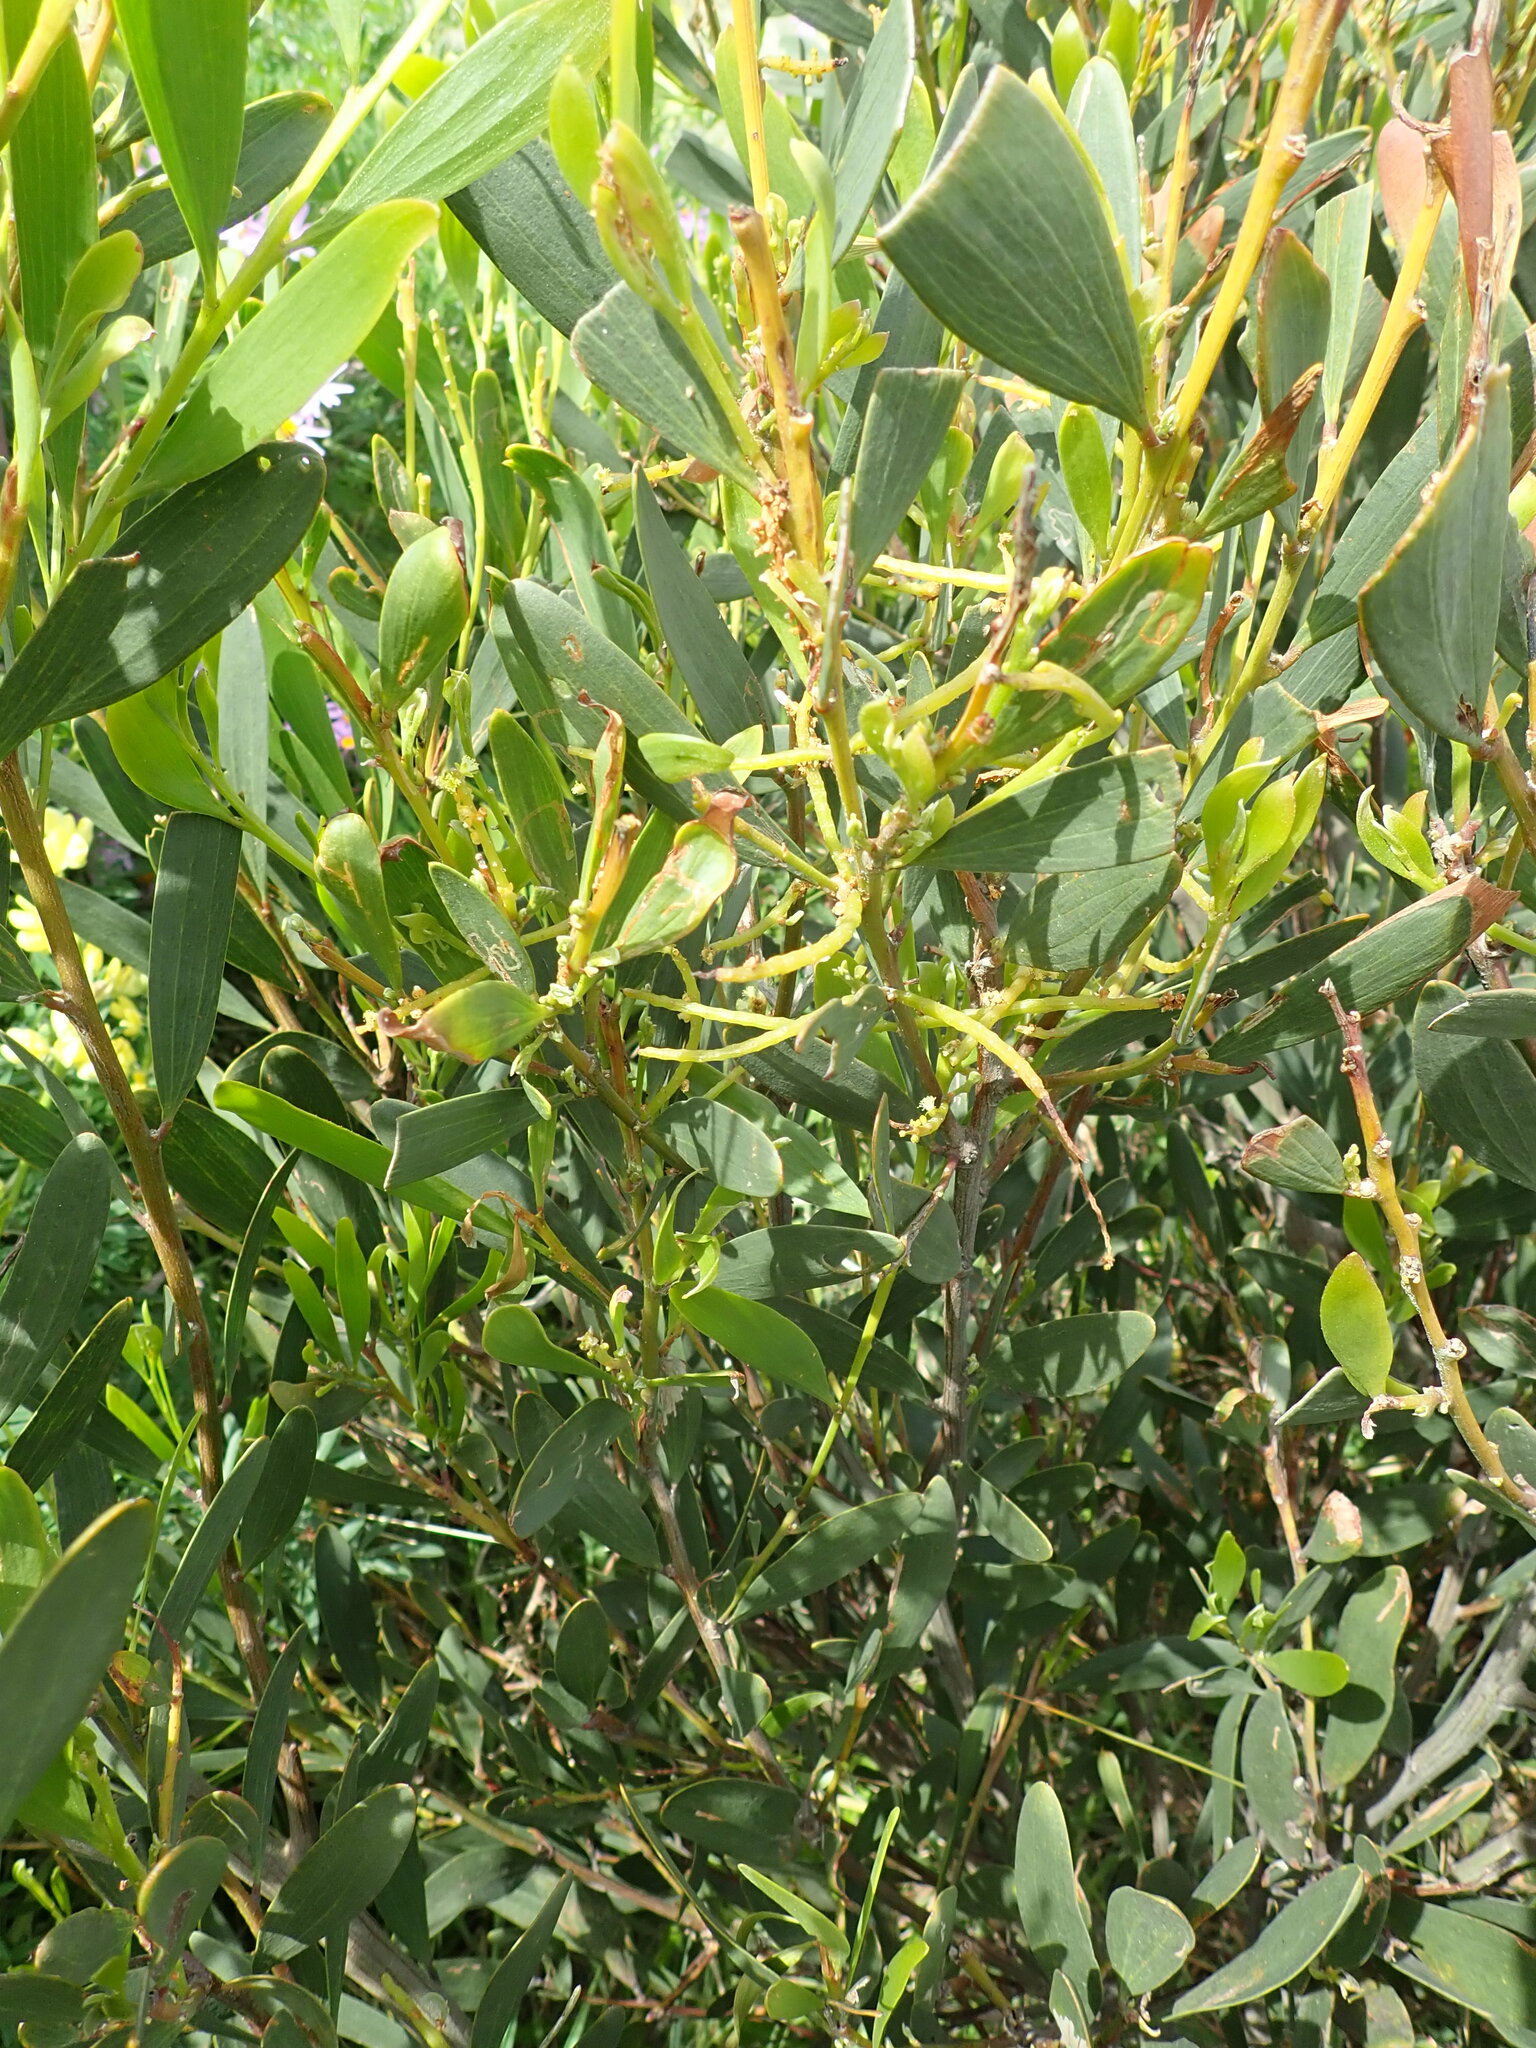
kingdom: Plantae
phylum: Tracheophyta
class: Magnoliopsida
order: Fabales
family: Fabaceae
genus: Acacia
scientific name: Acacia longifolia
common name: Sydney golden wattle
